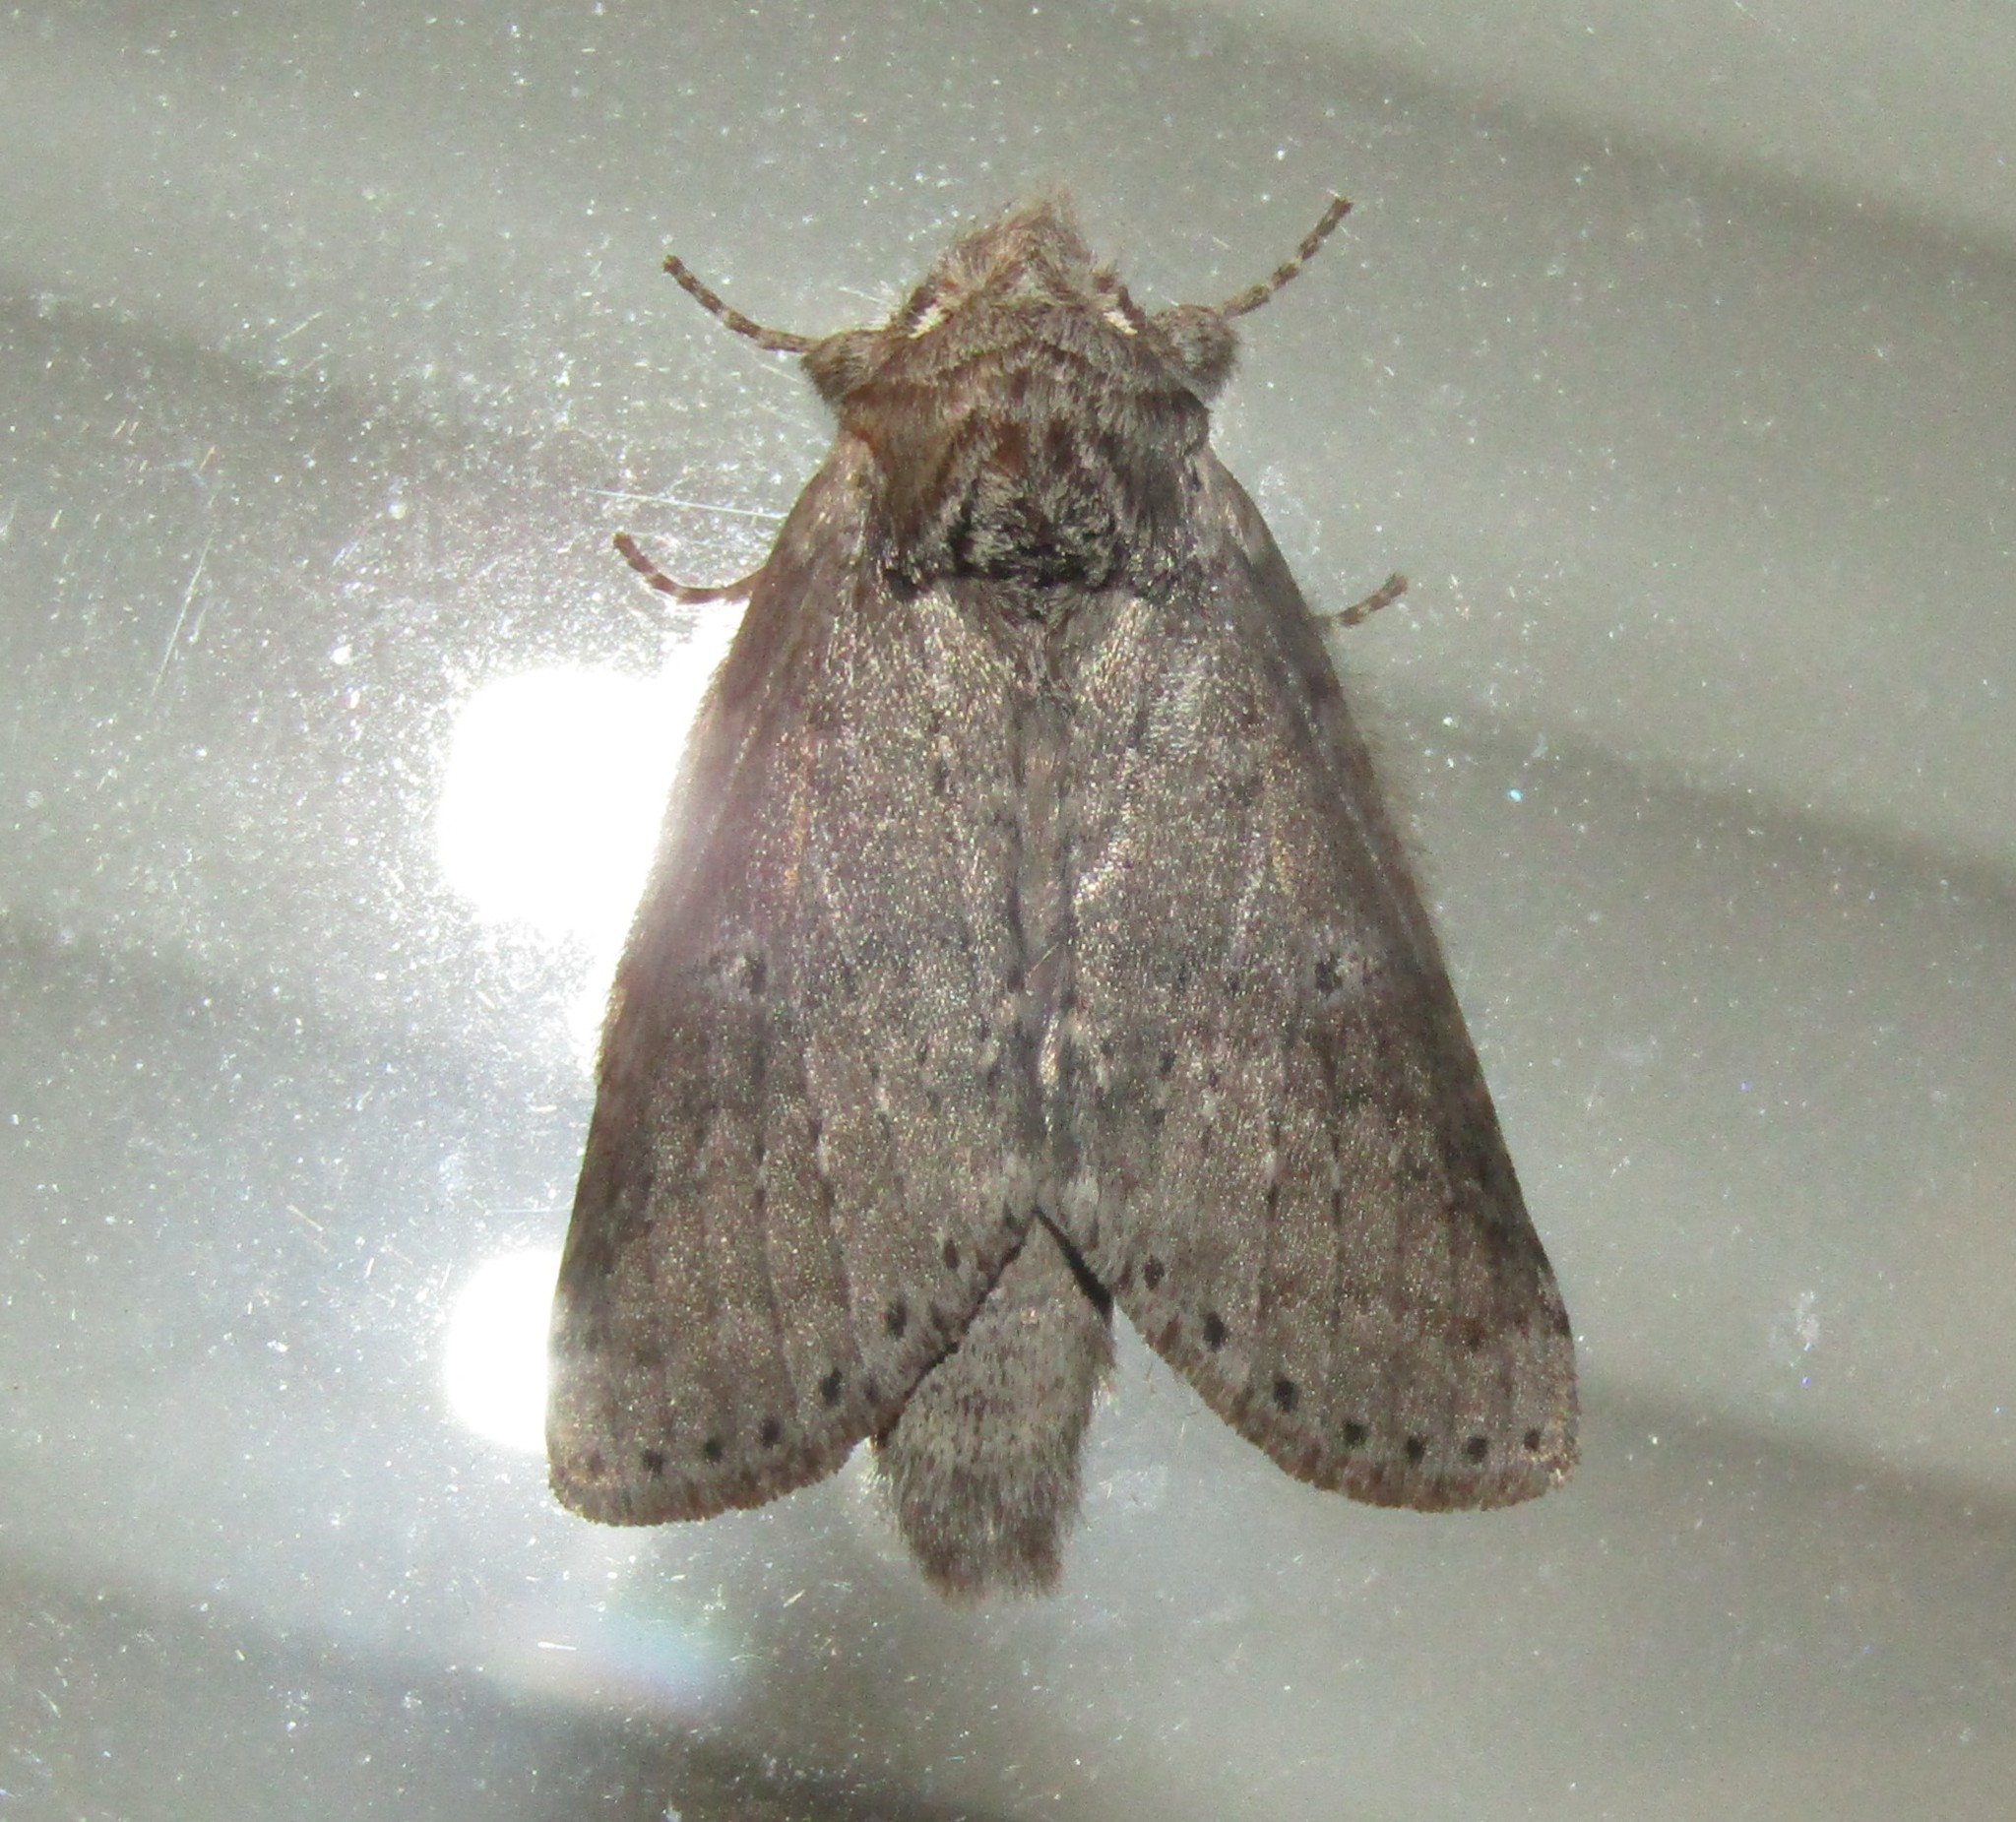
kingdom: Animalia
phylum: Arthropoda
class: Insecta
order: Lepidoptera
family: Notodontidae
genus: Lochmaeus
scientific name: Lochmaeus manteo
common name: Variable oakleaf caterpillar moth
